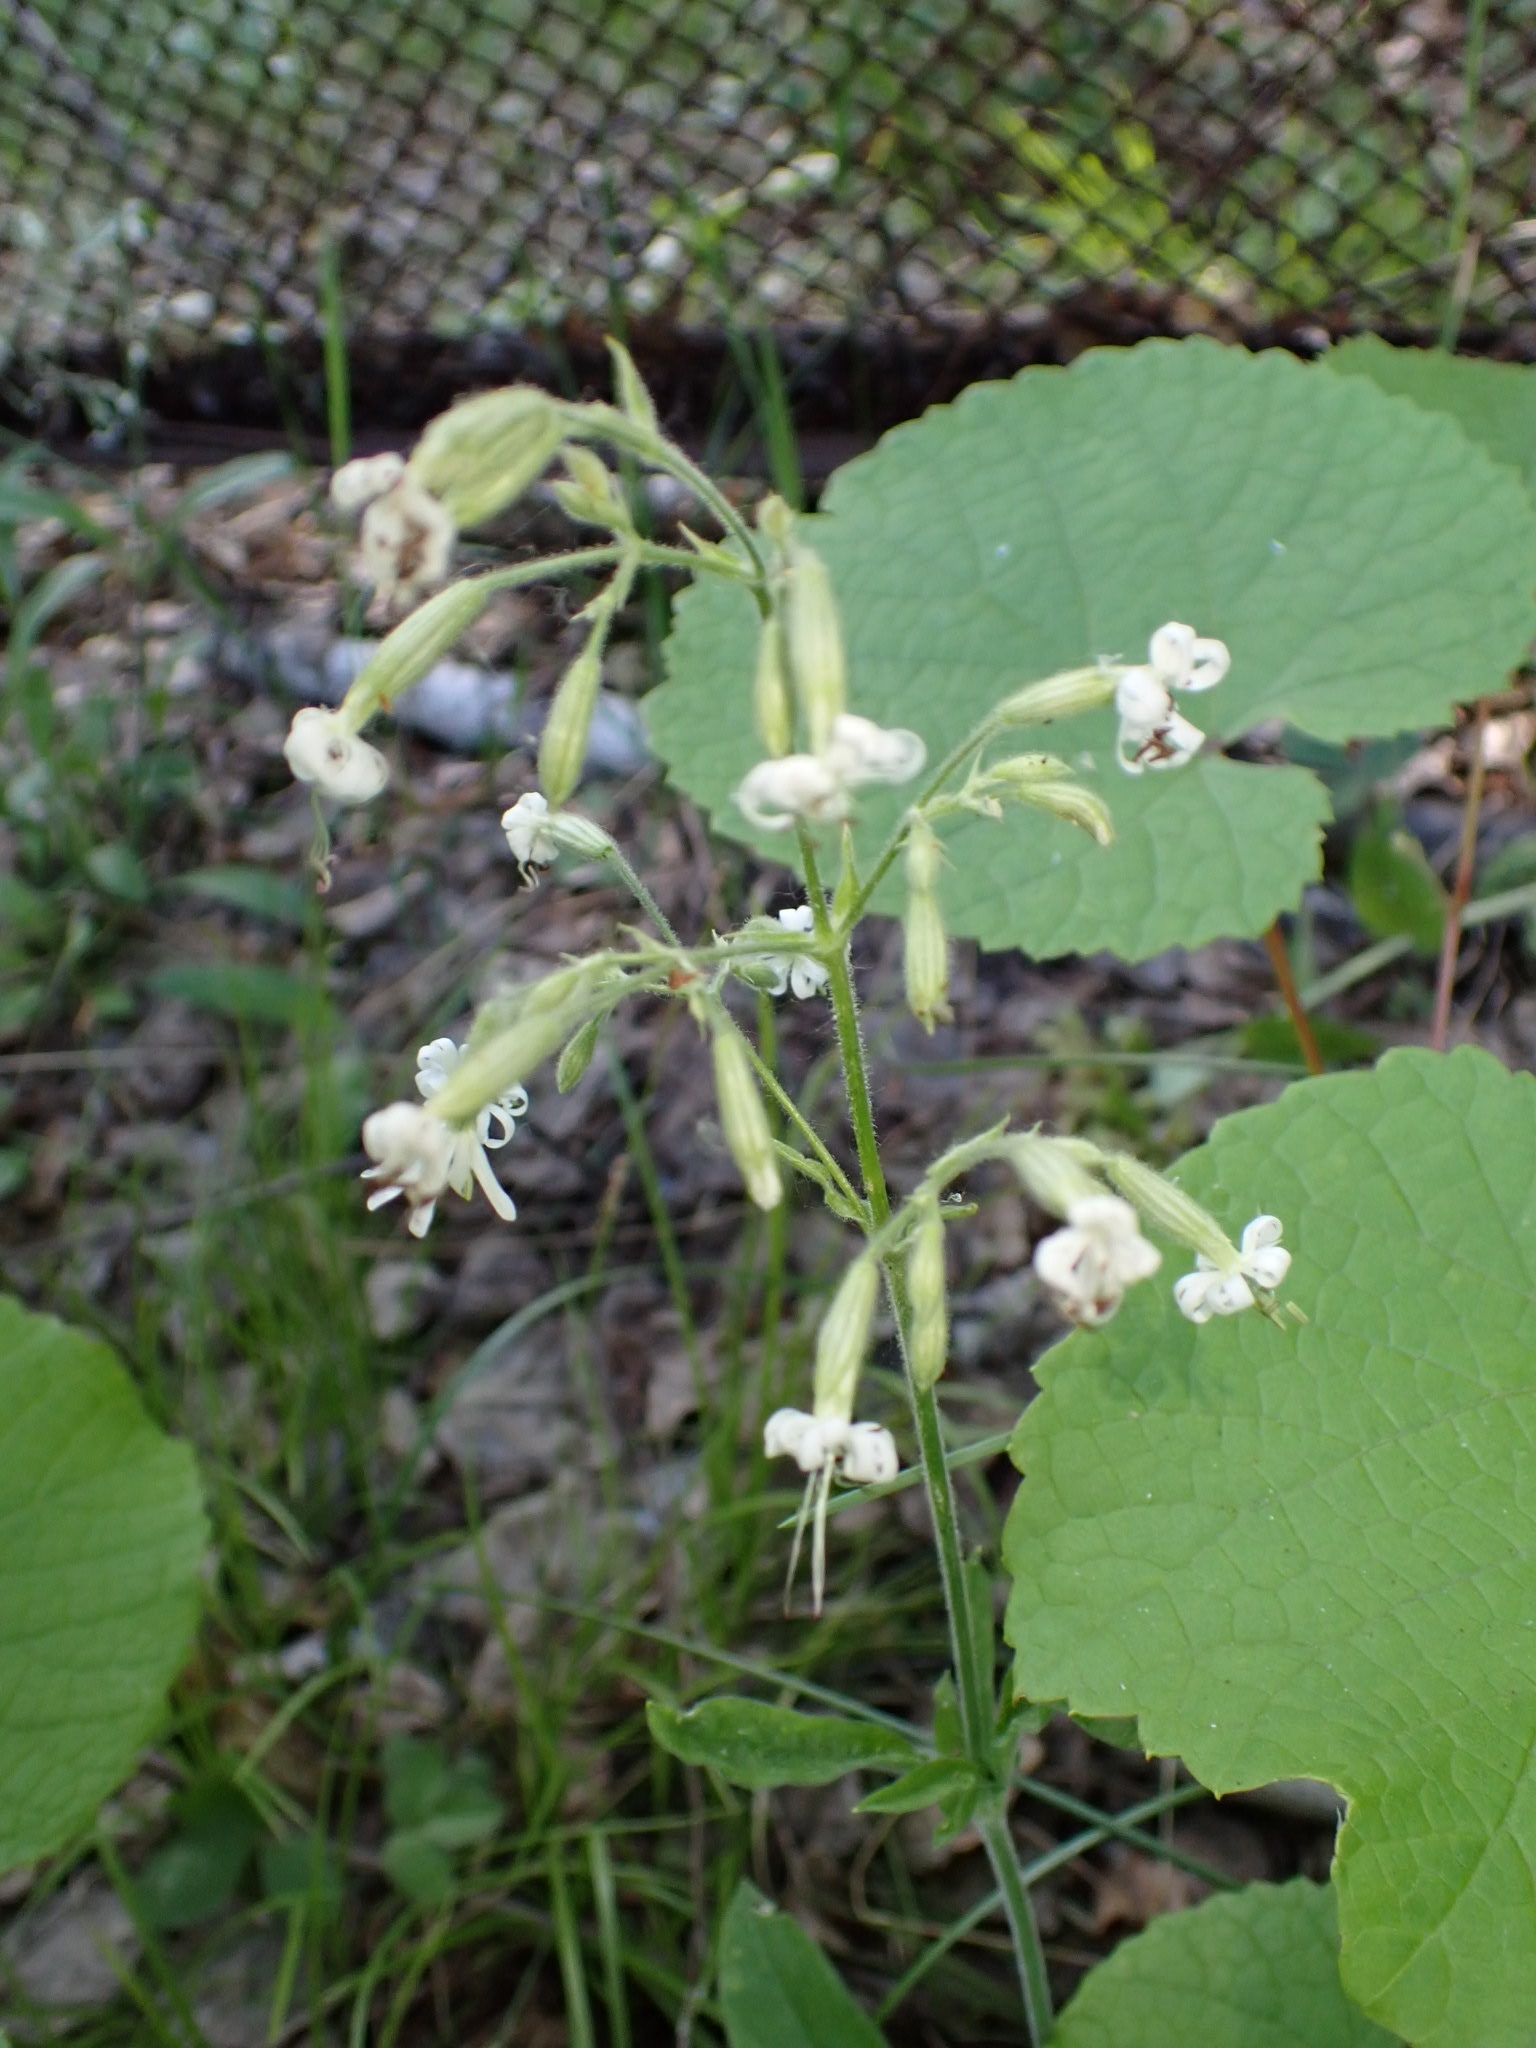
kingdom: Plantae
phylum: Tracheophyta
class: Magnoliopsida
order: Caryophyllales
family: Caryophyllaceae
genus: Silene
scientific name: Silene nutans
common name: Nottingham catchfly
